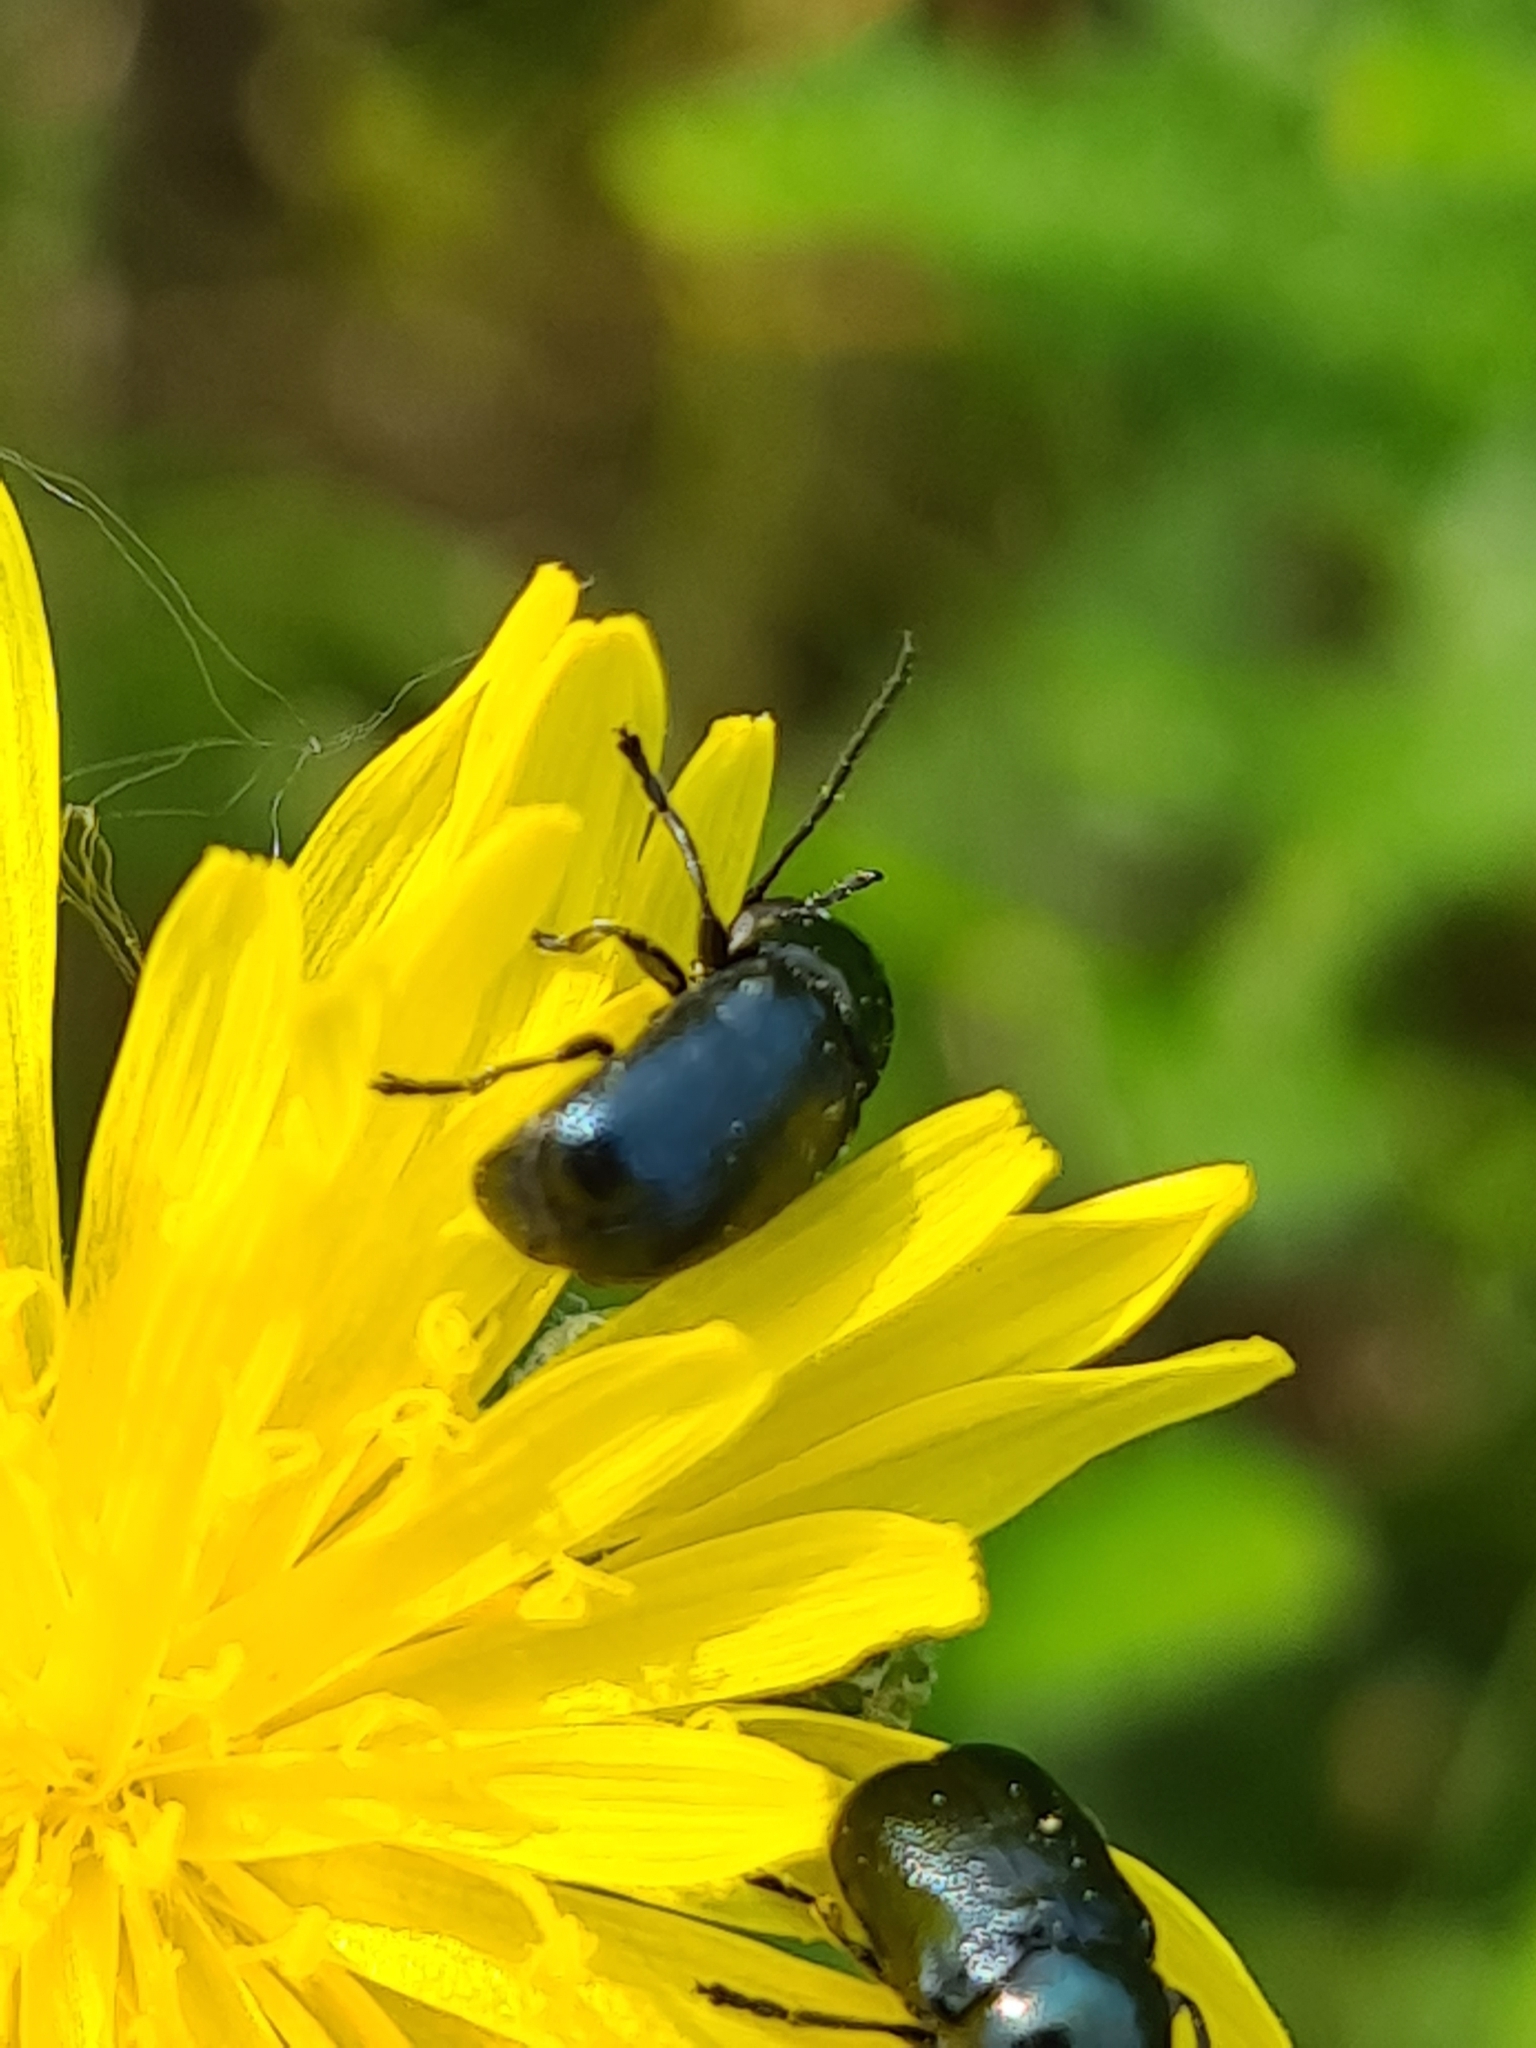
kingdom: Animalia
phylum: Arthropoda
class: Insecta
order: Coleoptera
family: Chrysomelidae
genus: Cryptocephalus
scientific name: Cryptocephalus violaceus
